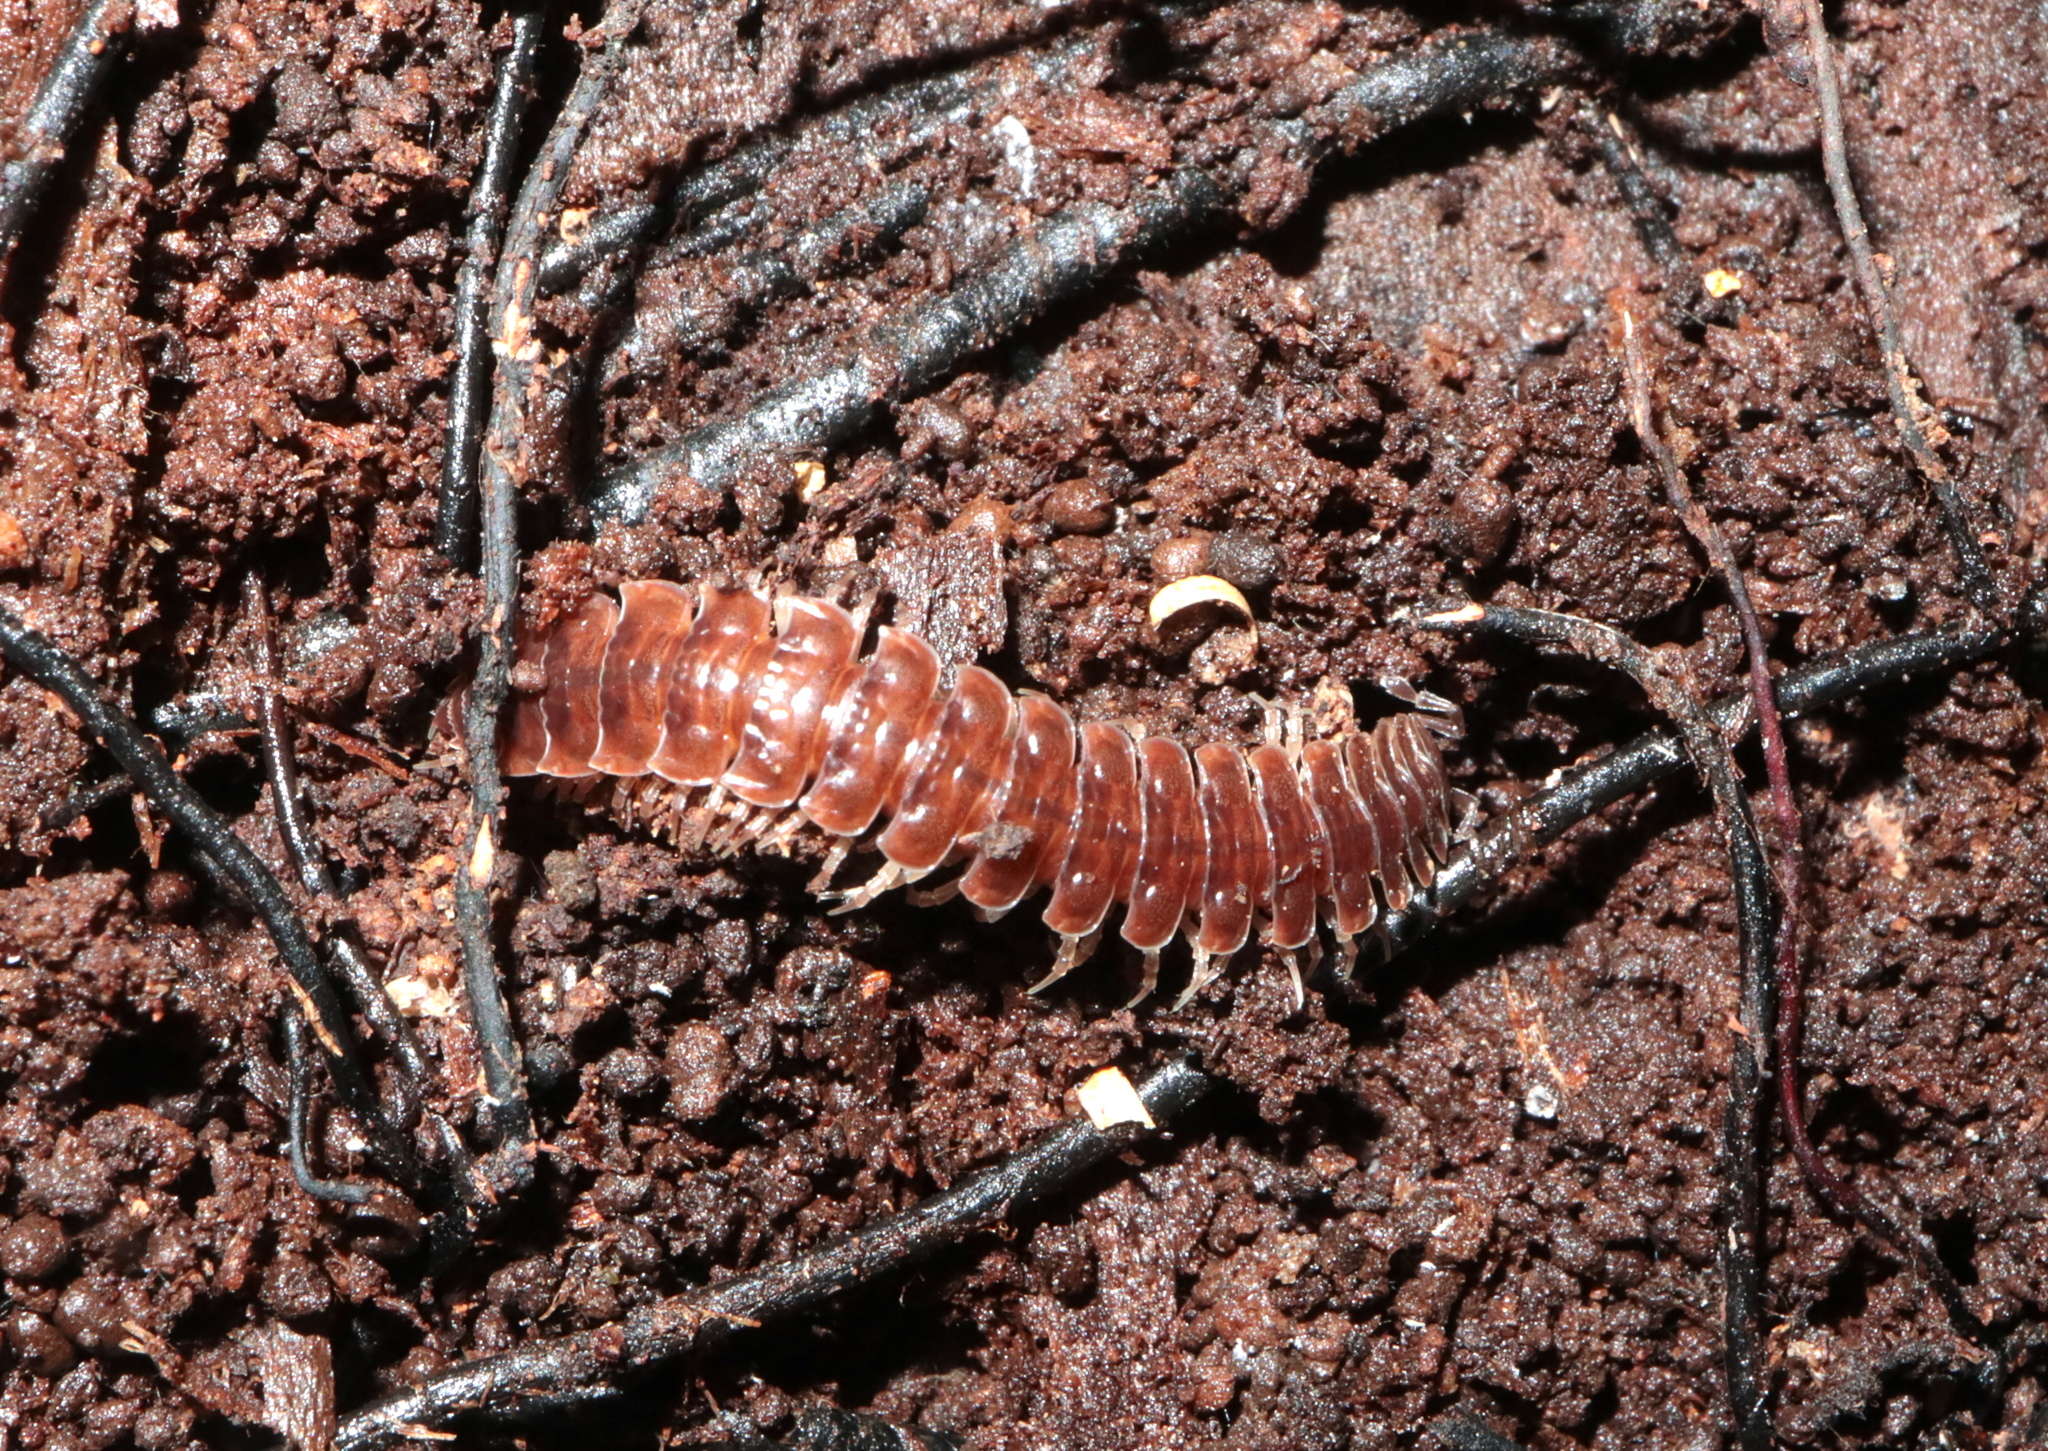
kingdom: Animalia
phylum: Arthropoda
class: Diplopoda
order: Polydesmida
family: Polydesmidae
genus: Pseudopolydesmus
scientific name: Pseudopolydesmus serratus
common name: Common pink flat-back millipede
